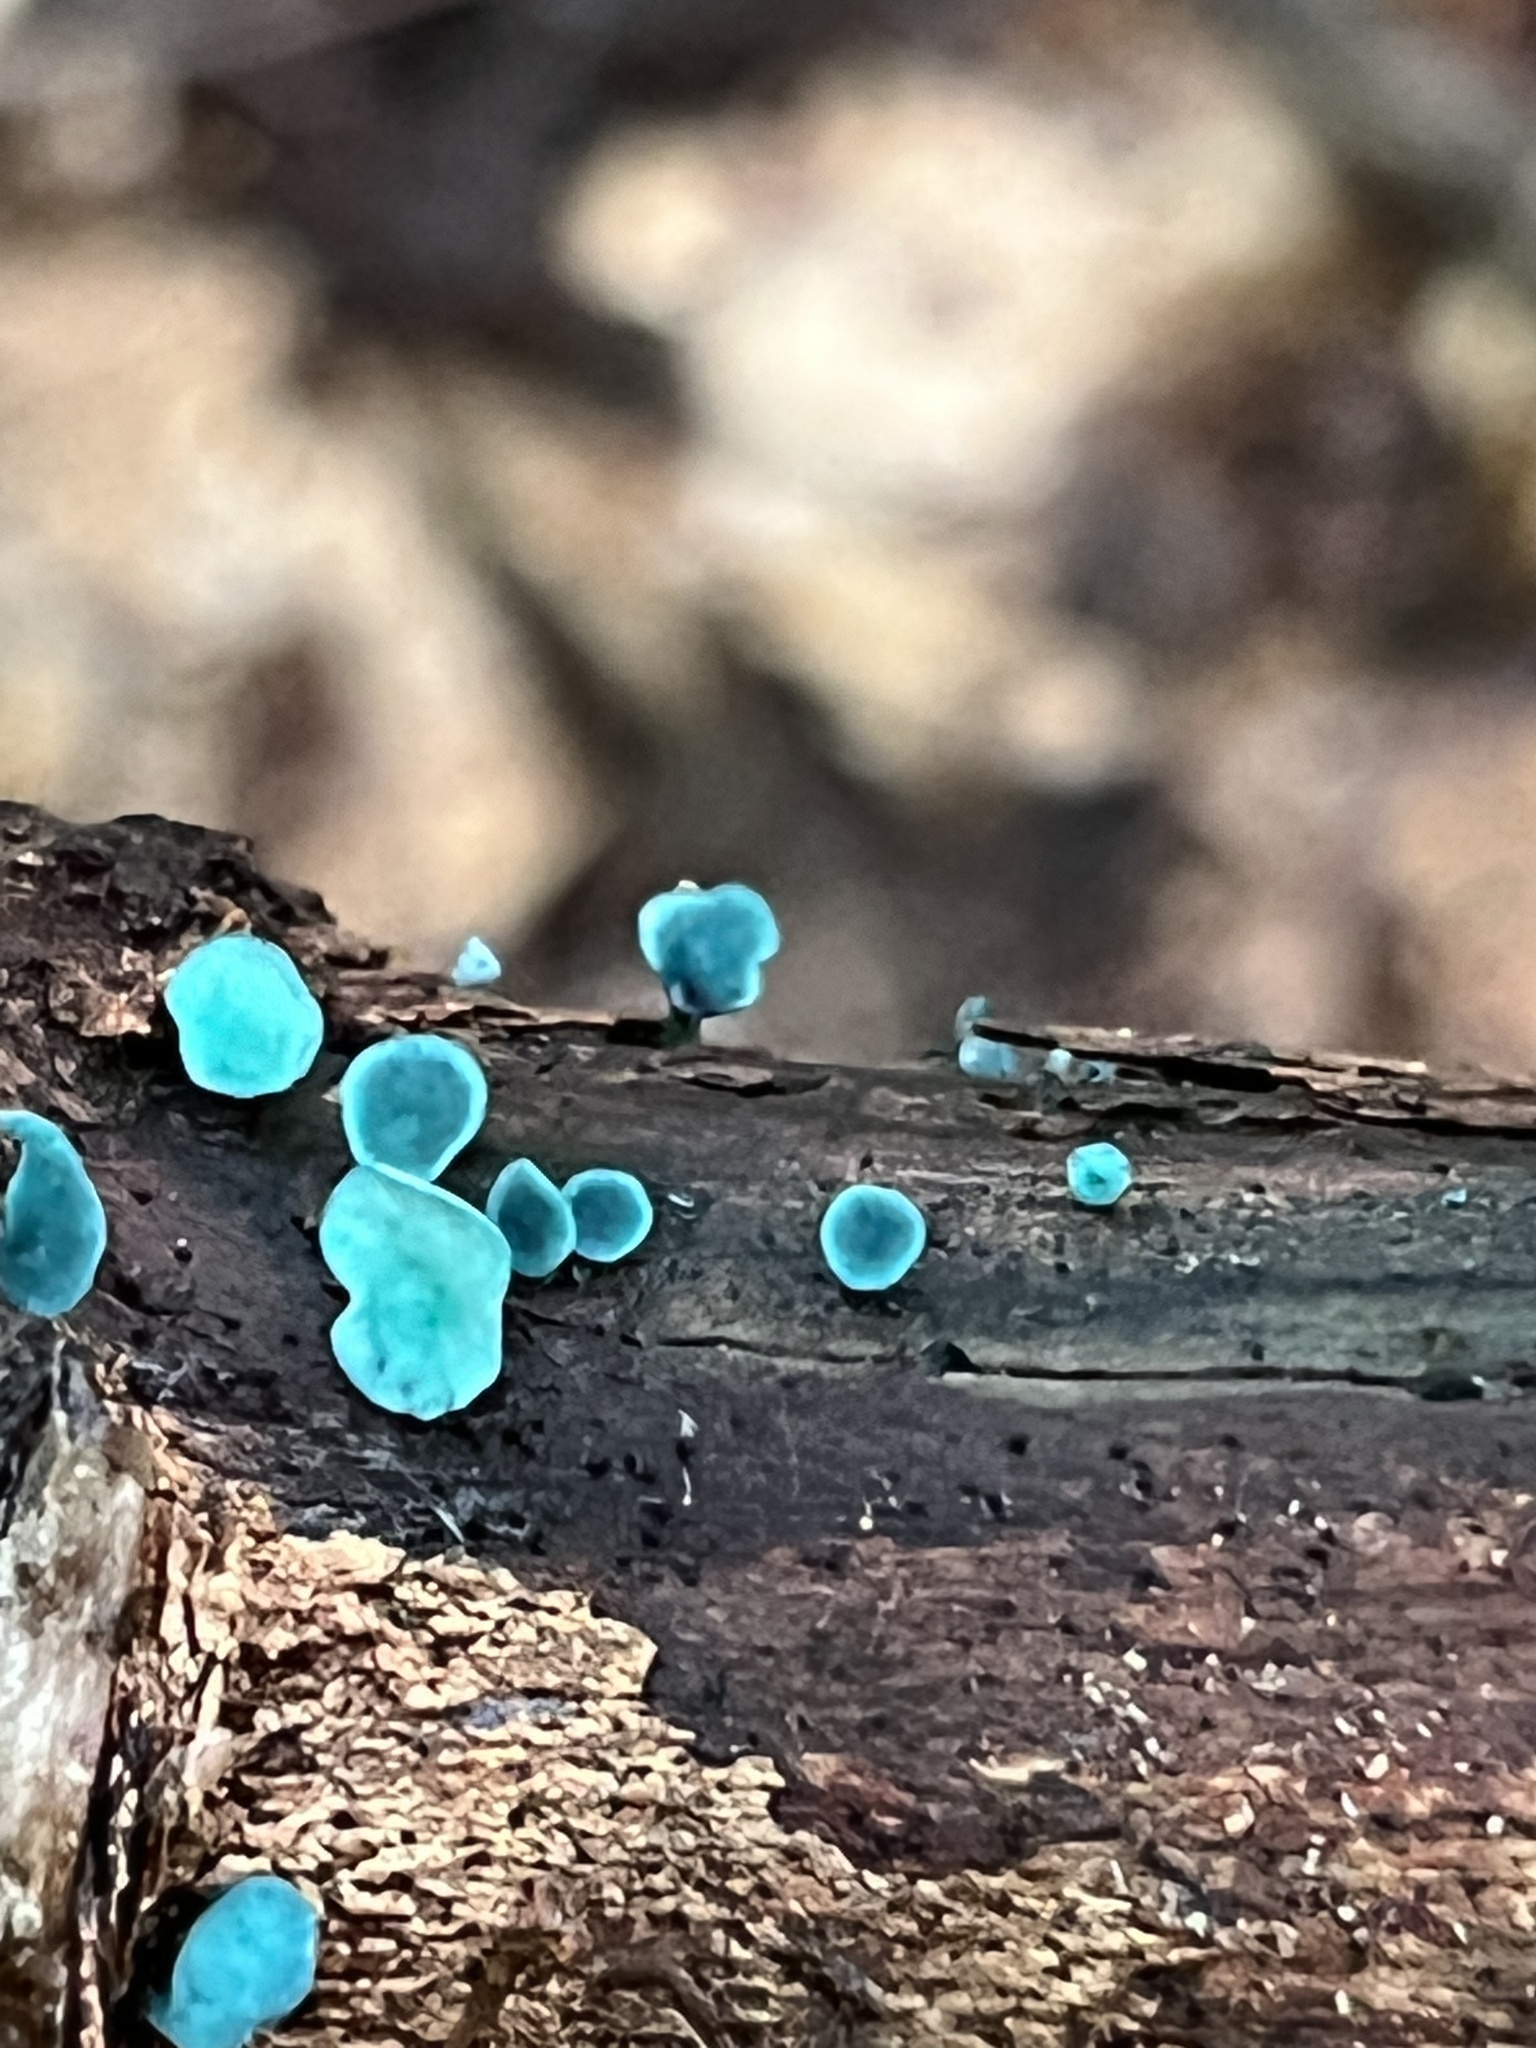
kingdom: Fungi
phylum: Ascomycota
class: Leotiomycetes
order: Helotiales
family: Chlorociboriaceae
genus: Chlorociboria
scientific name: Chlorociboria aeruginascens
